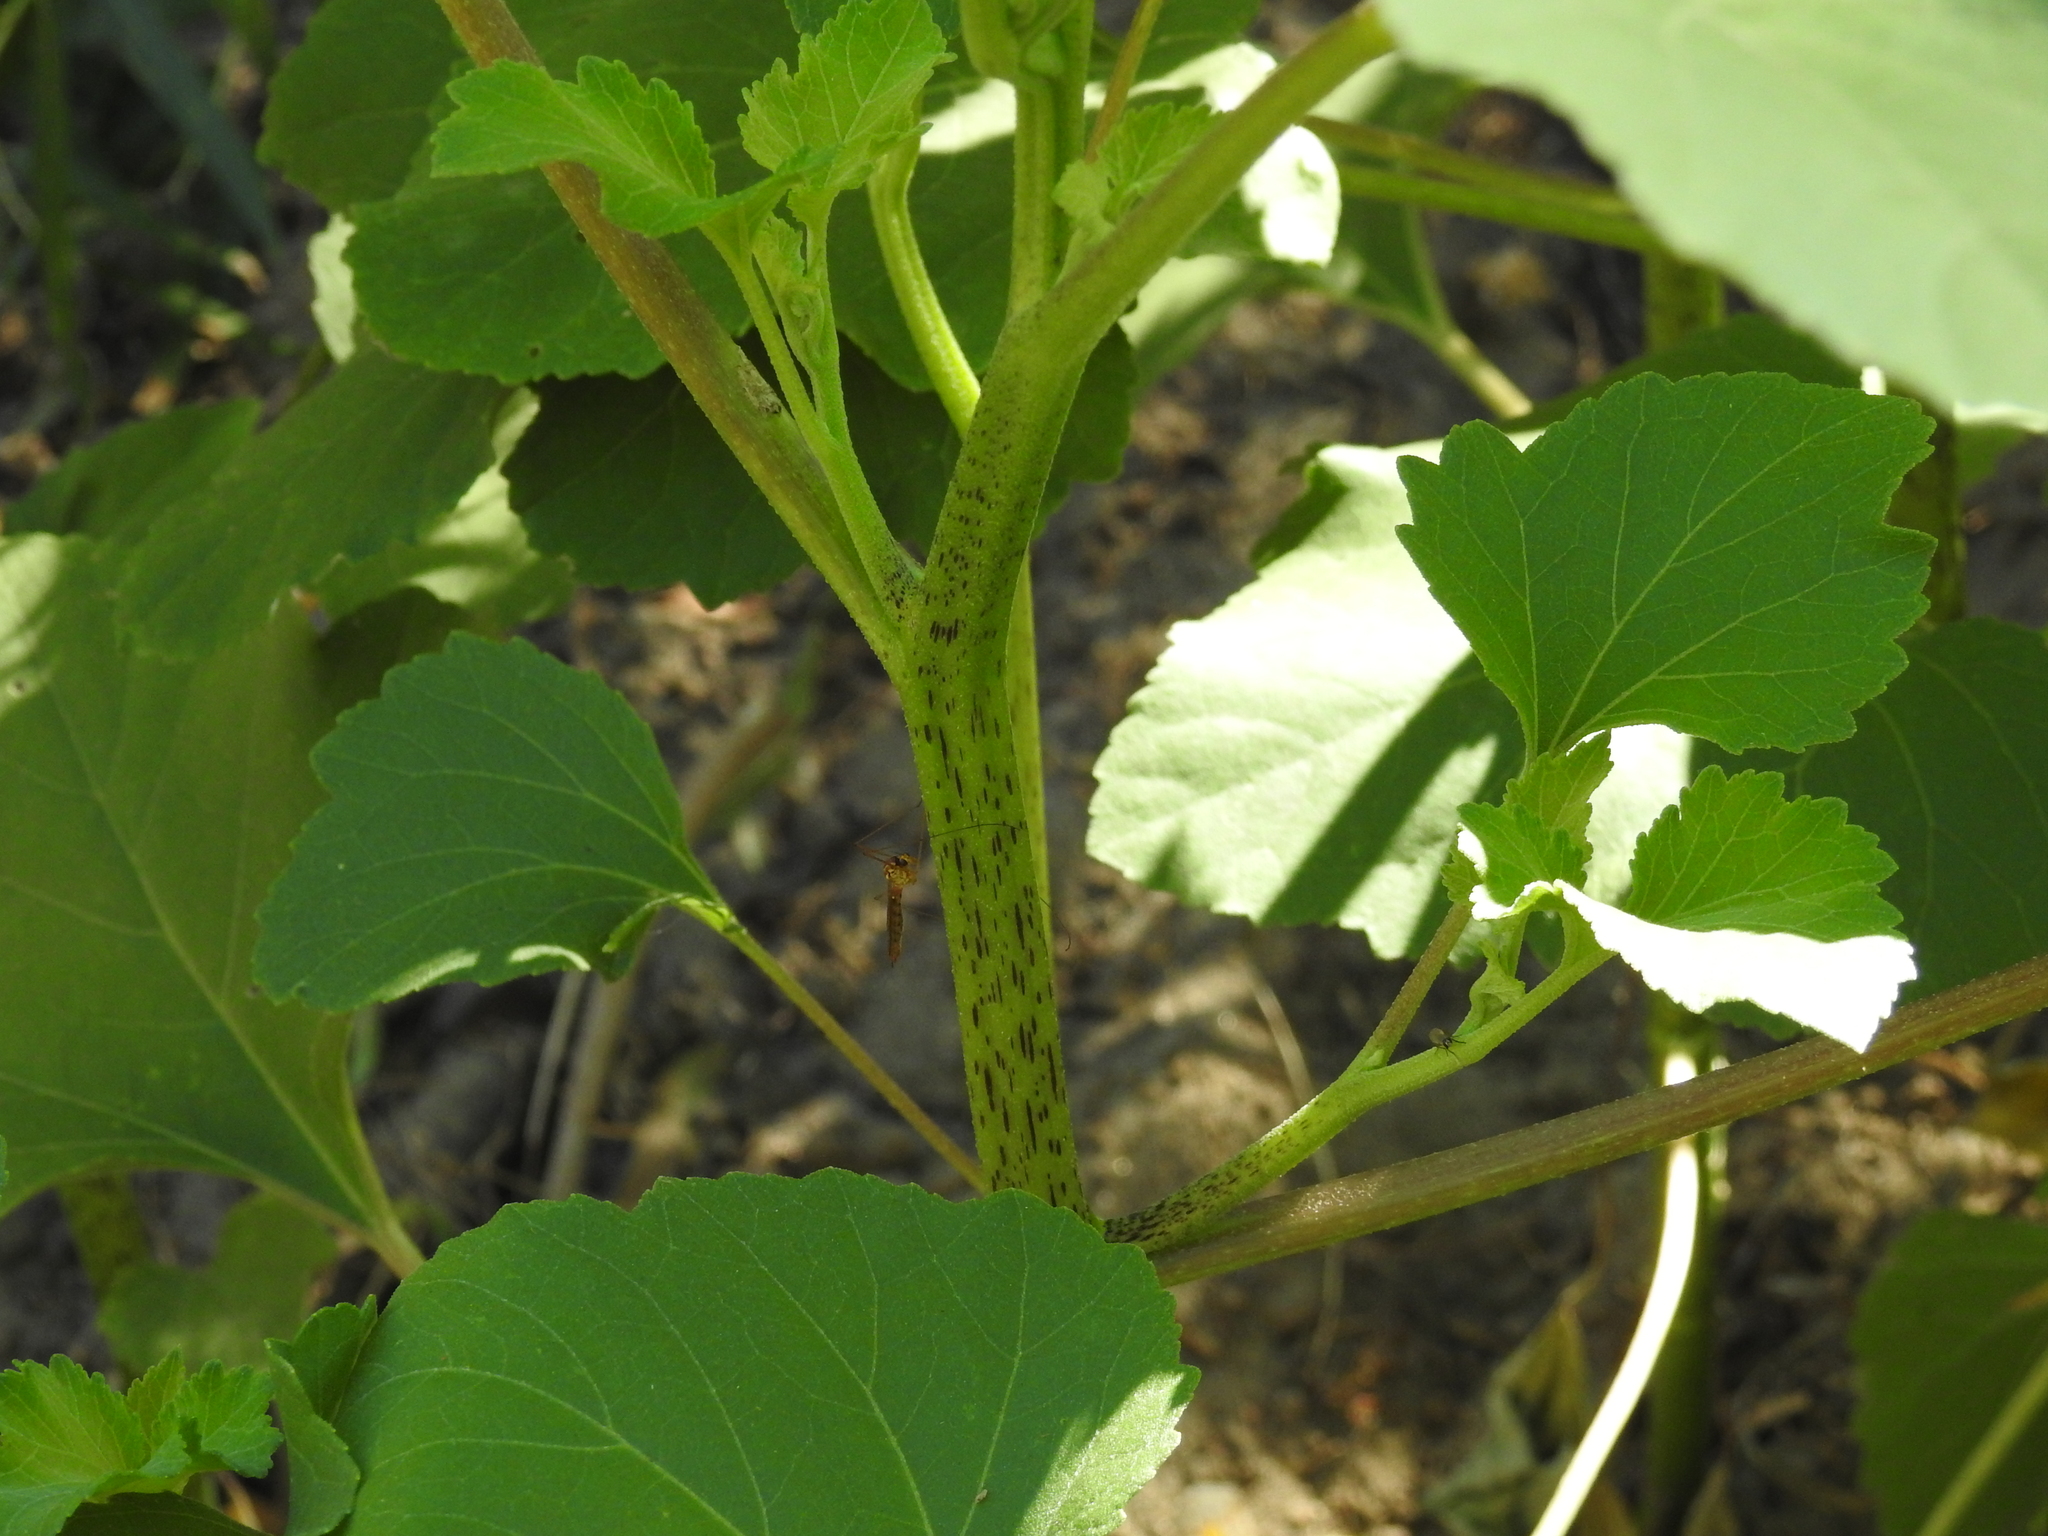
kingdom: Plantae
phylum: Tracheophyta
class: Magnoliopsida
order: Asterales
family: Asteraceae
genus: Xanthium
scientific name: Xanthium strumarium
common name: Rough cocklebur
